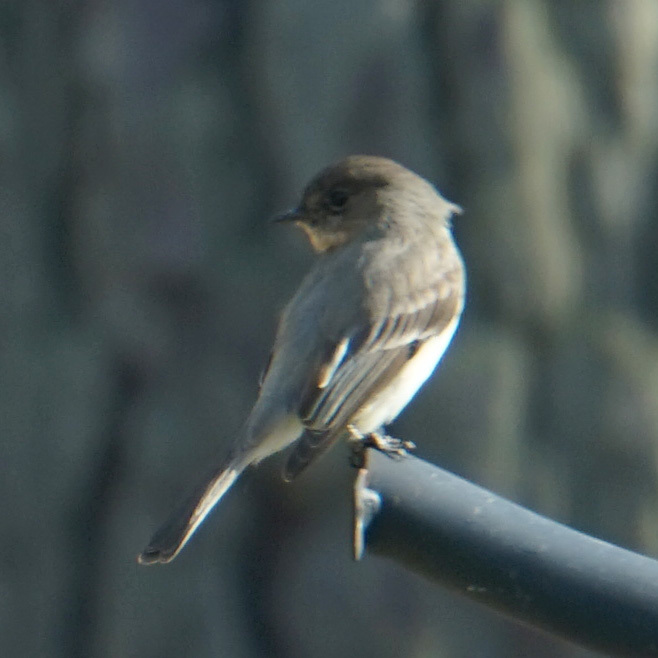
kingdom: Animalia
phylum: Chordata
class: Aves
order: Passeriformes
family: Tyrannidae
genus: Sayornis
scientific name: Sayornis phoebe
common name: Eastern phoebe
